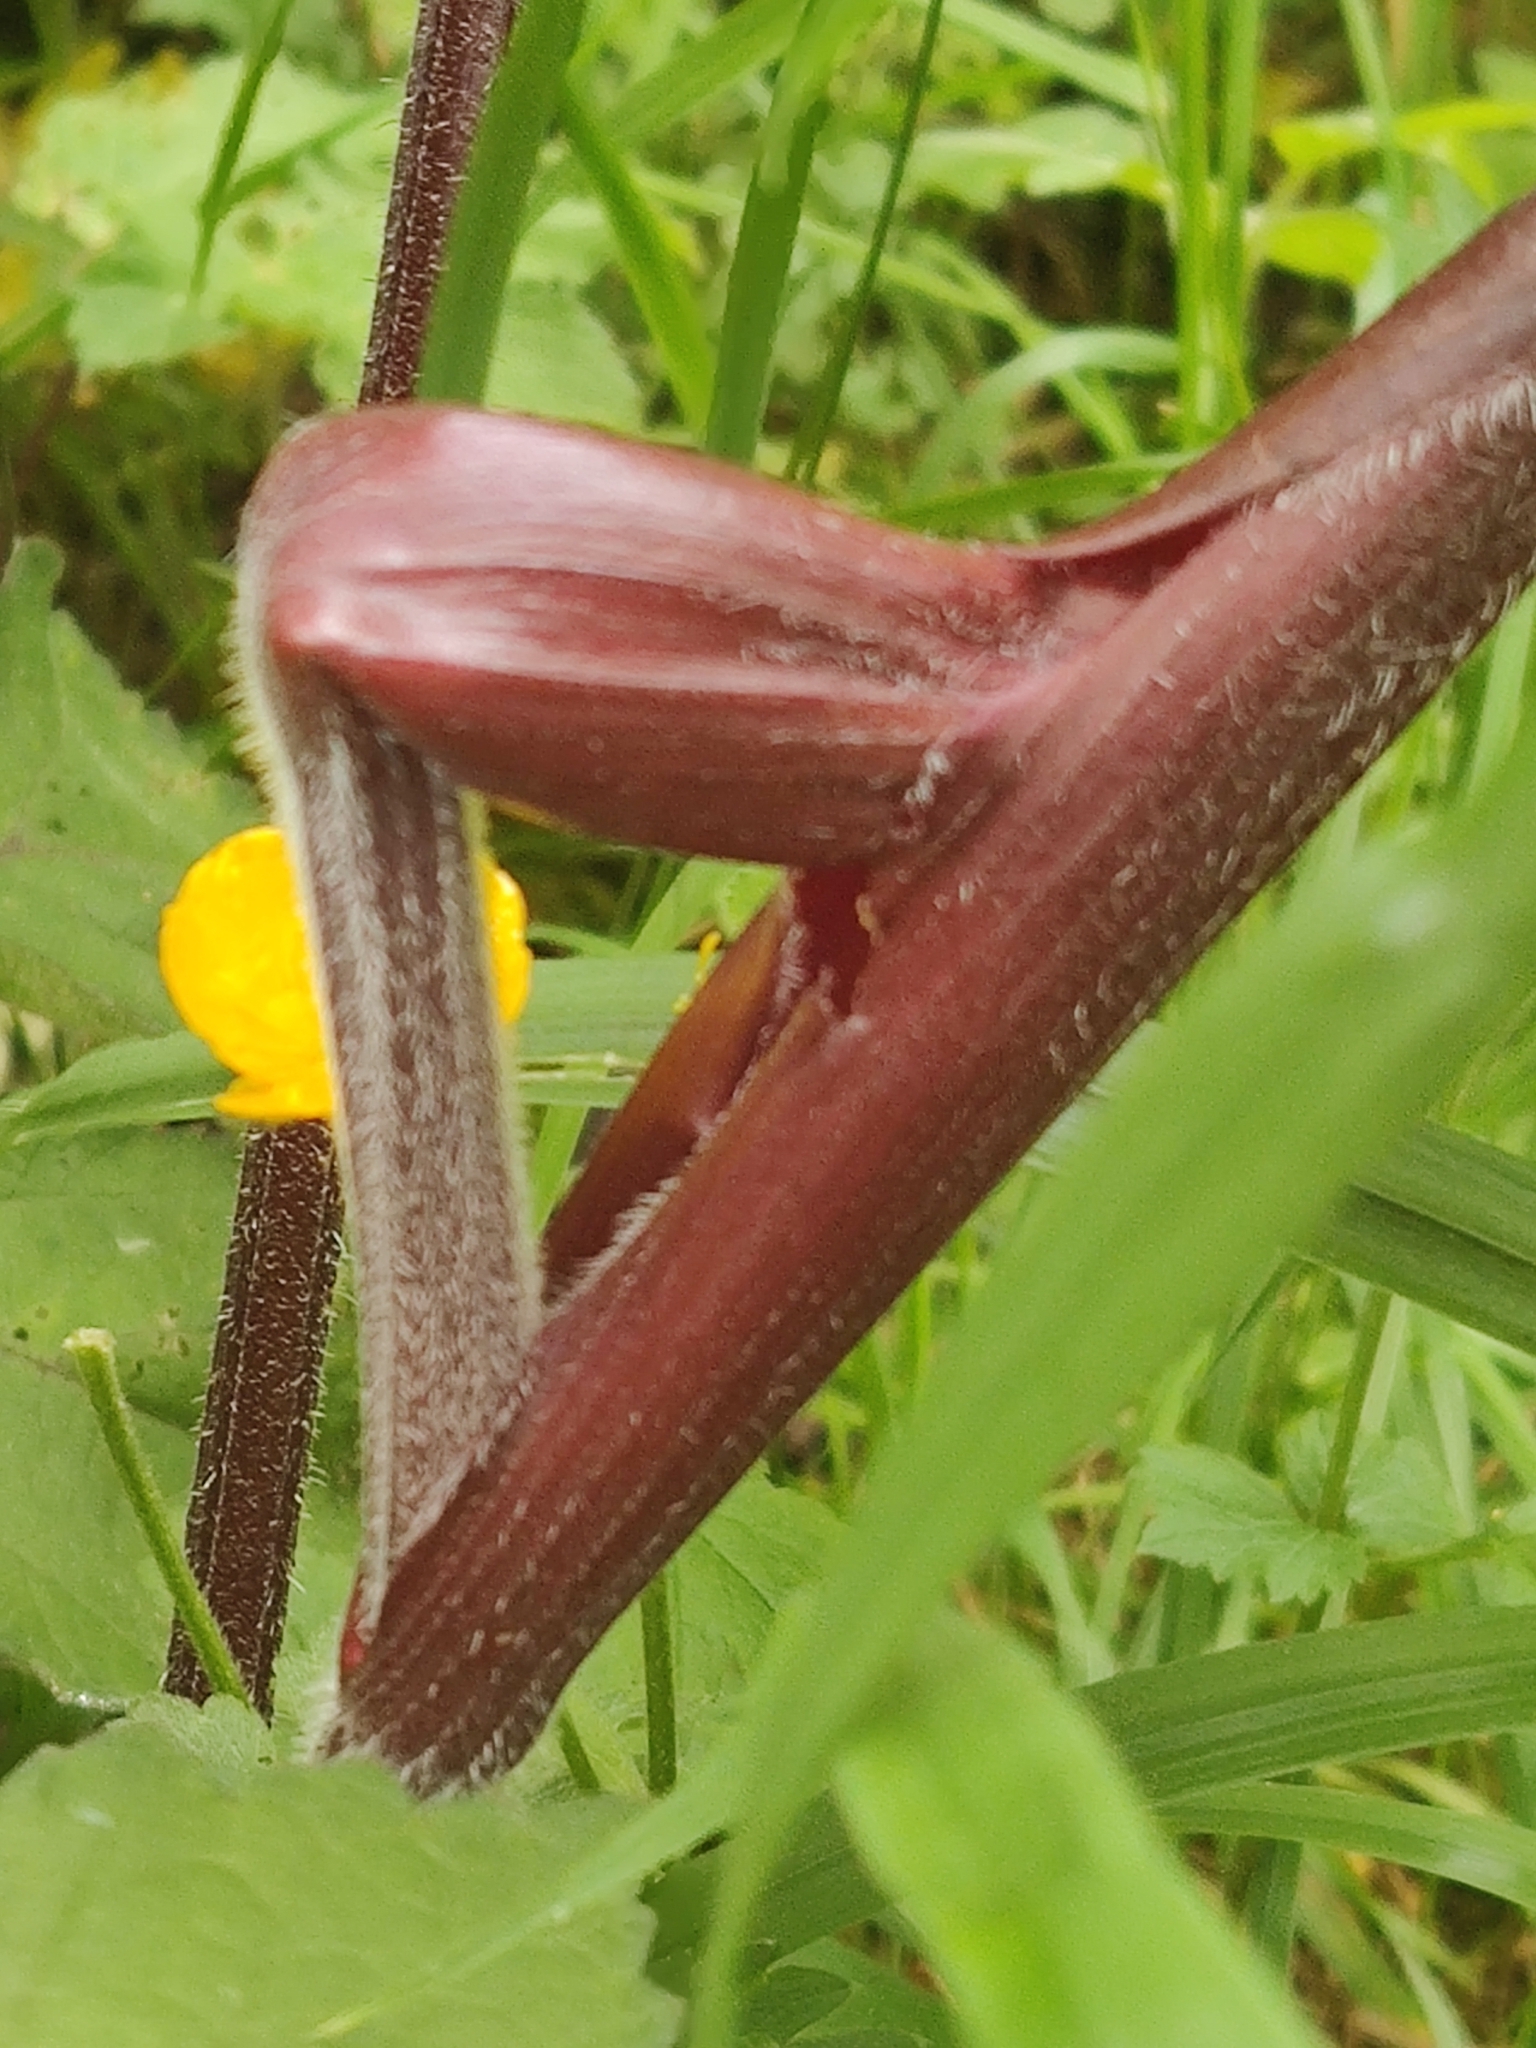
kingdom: Plantae
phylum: Tracheophyta
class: Magnoliopsida
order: Apiales
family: Apiaceae
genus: Heracleum
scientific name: Heracleum sphondylium
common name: Hogweed
